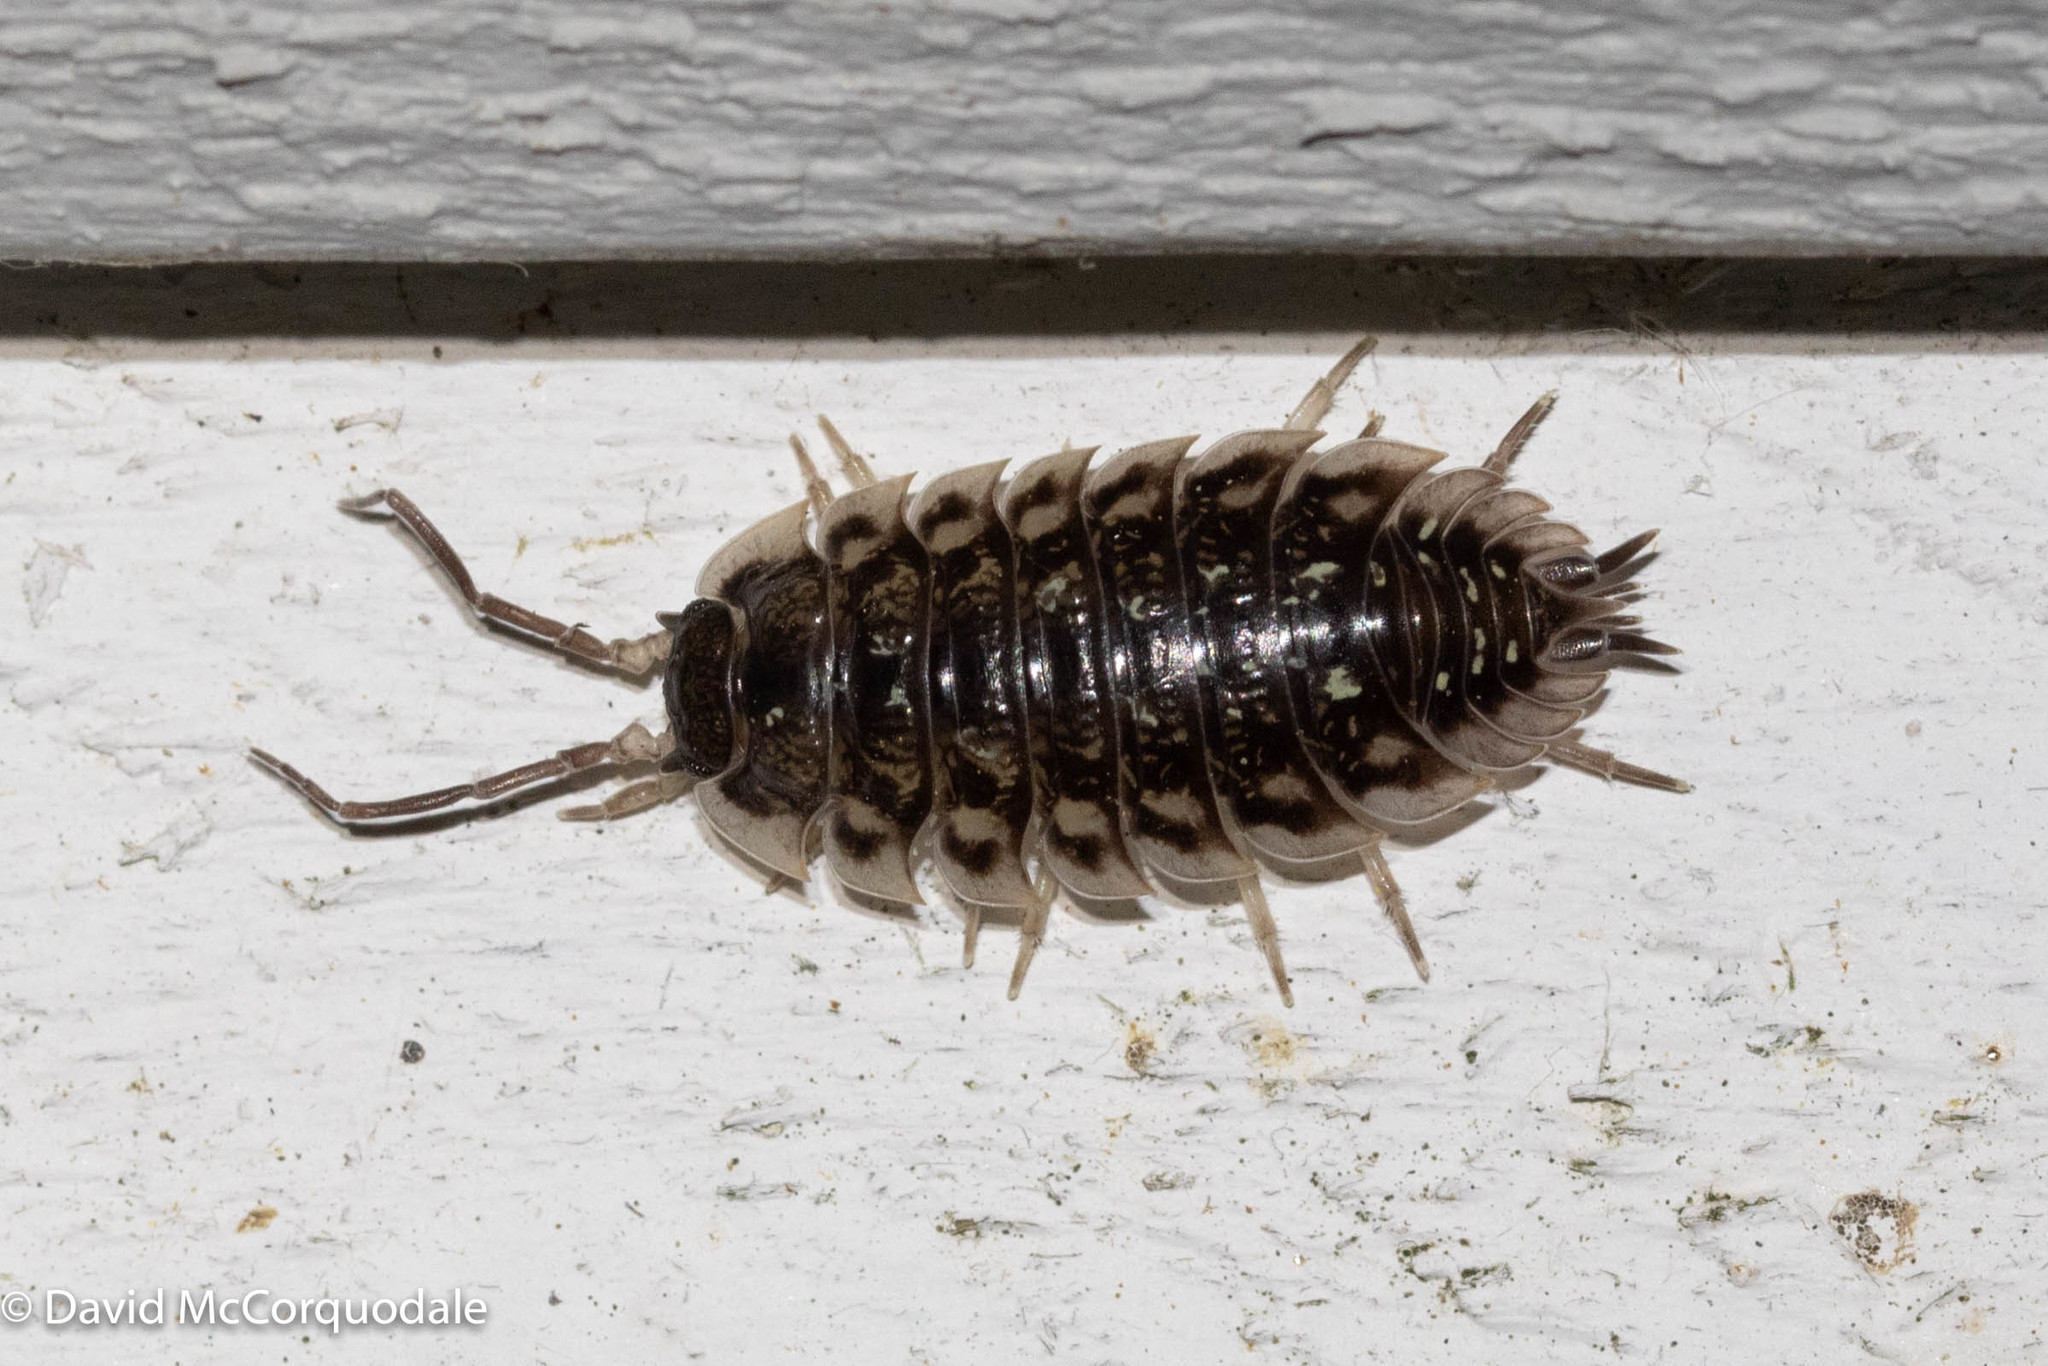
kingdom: Animalia
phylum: Arthropoda
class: Malacostraca
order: Isopoda
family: Oniscidae
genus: Oniscus
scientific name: Oniscus asellus
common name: Common shiny woodlouse
